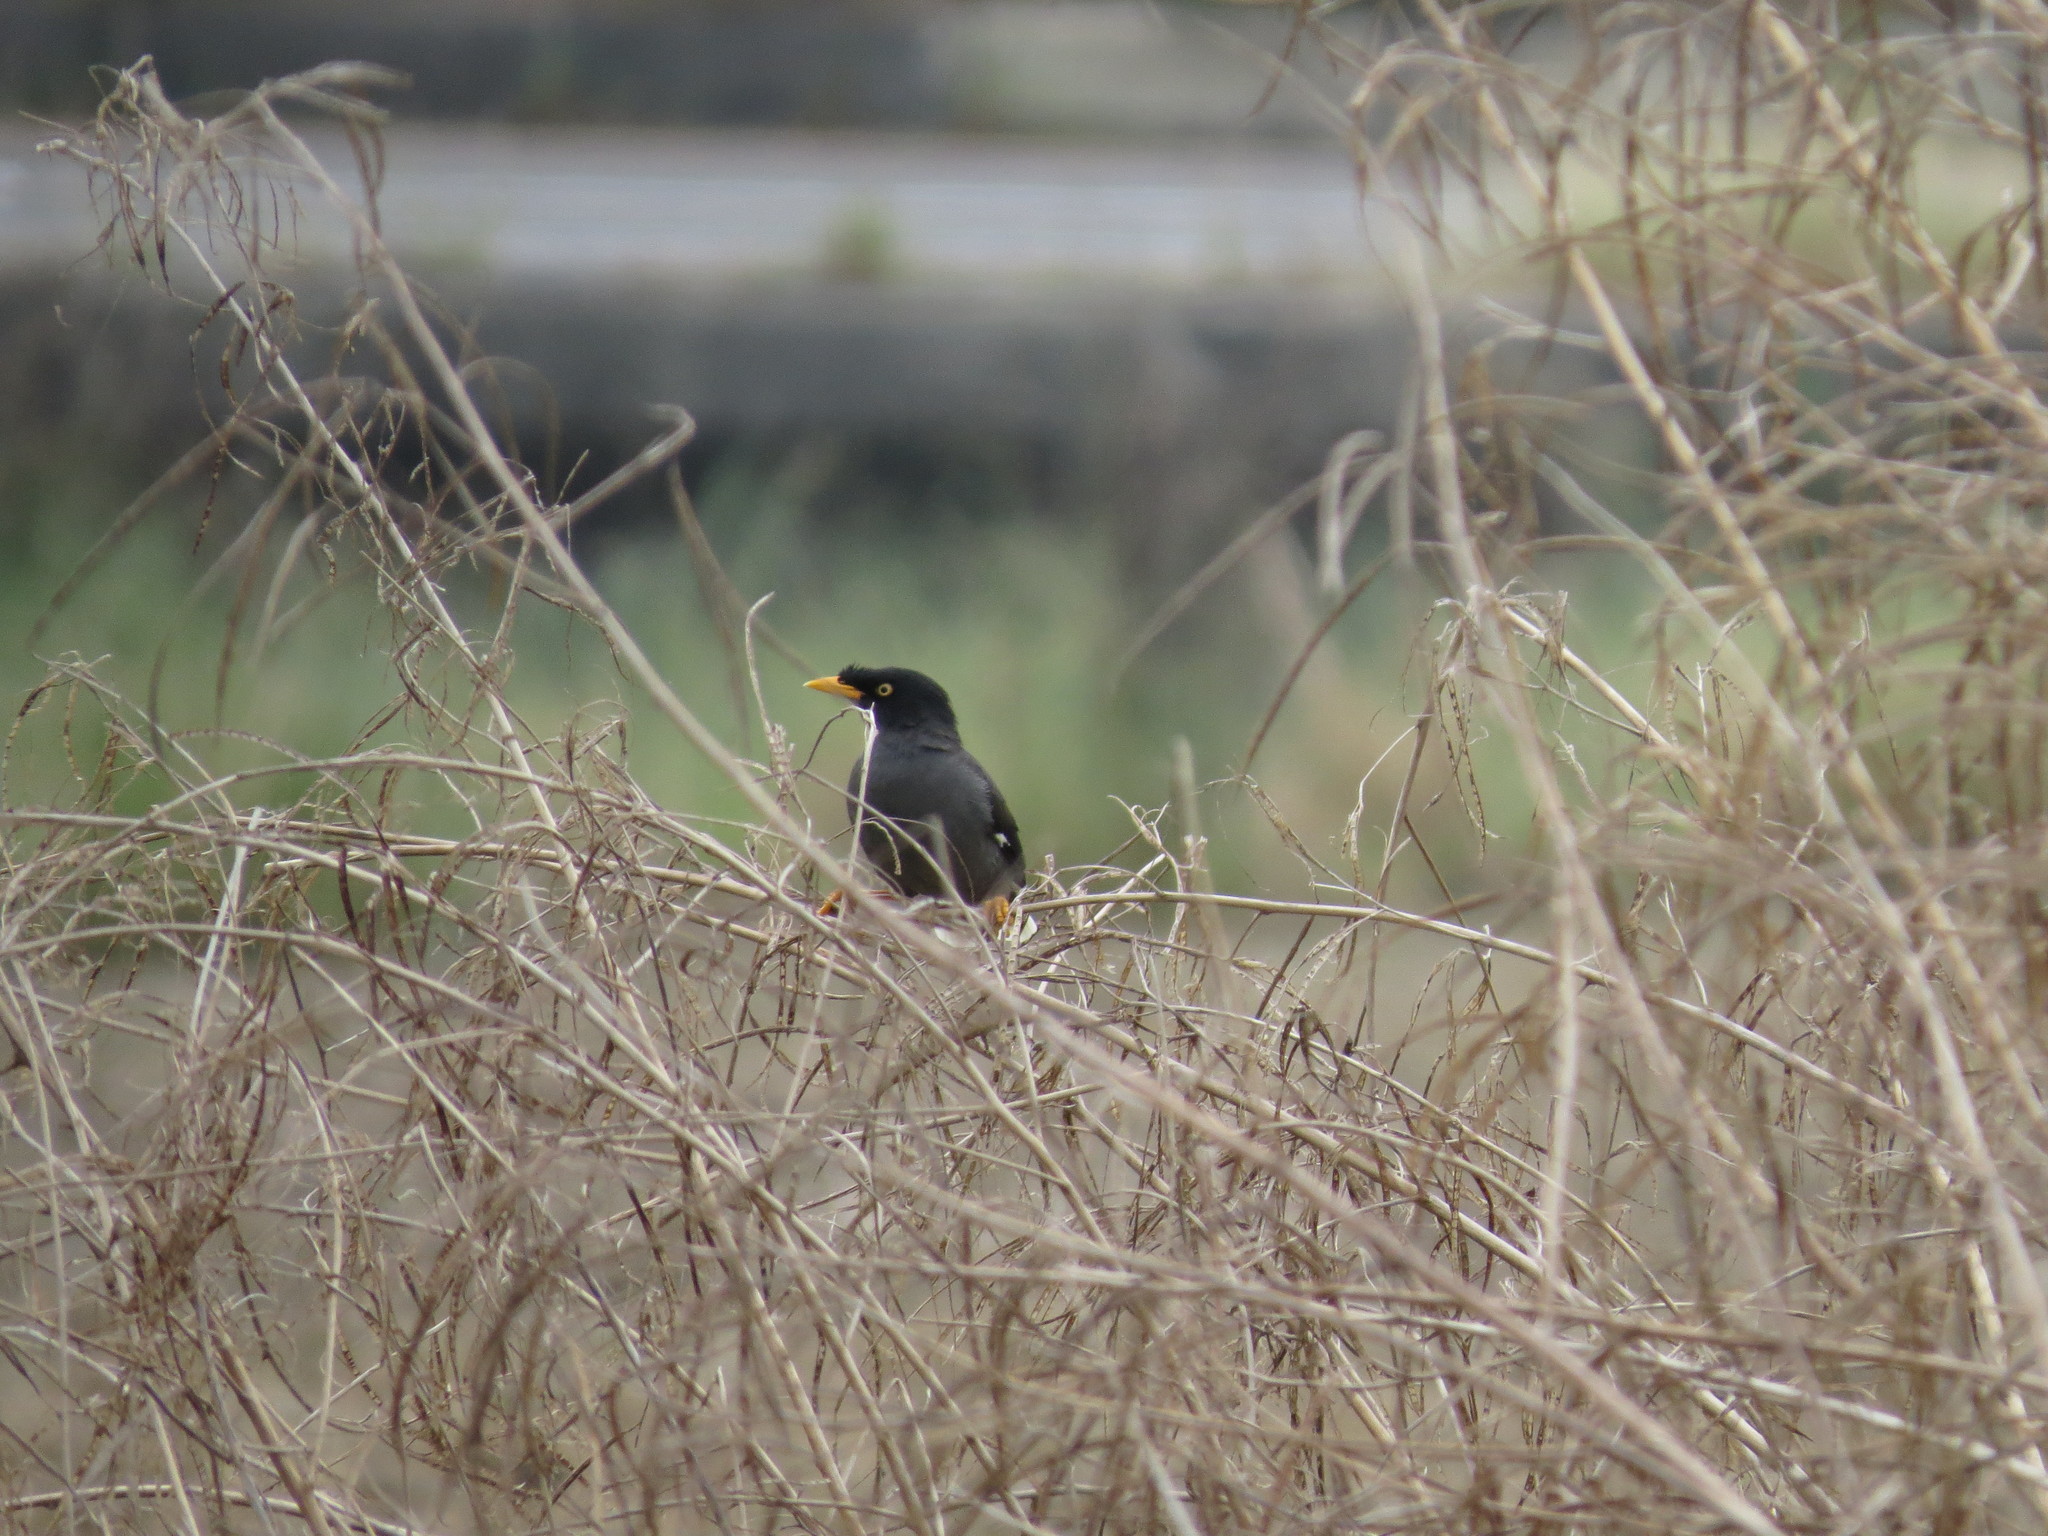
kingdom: Animalia
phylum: Chordata
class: Aves
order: Passeriformes
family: Sturnidae
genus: Acridotheres
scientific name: Acridotheres javanicus
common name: Javan myna
